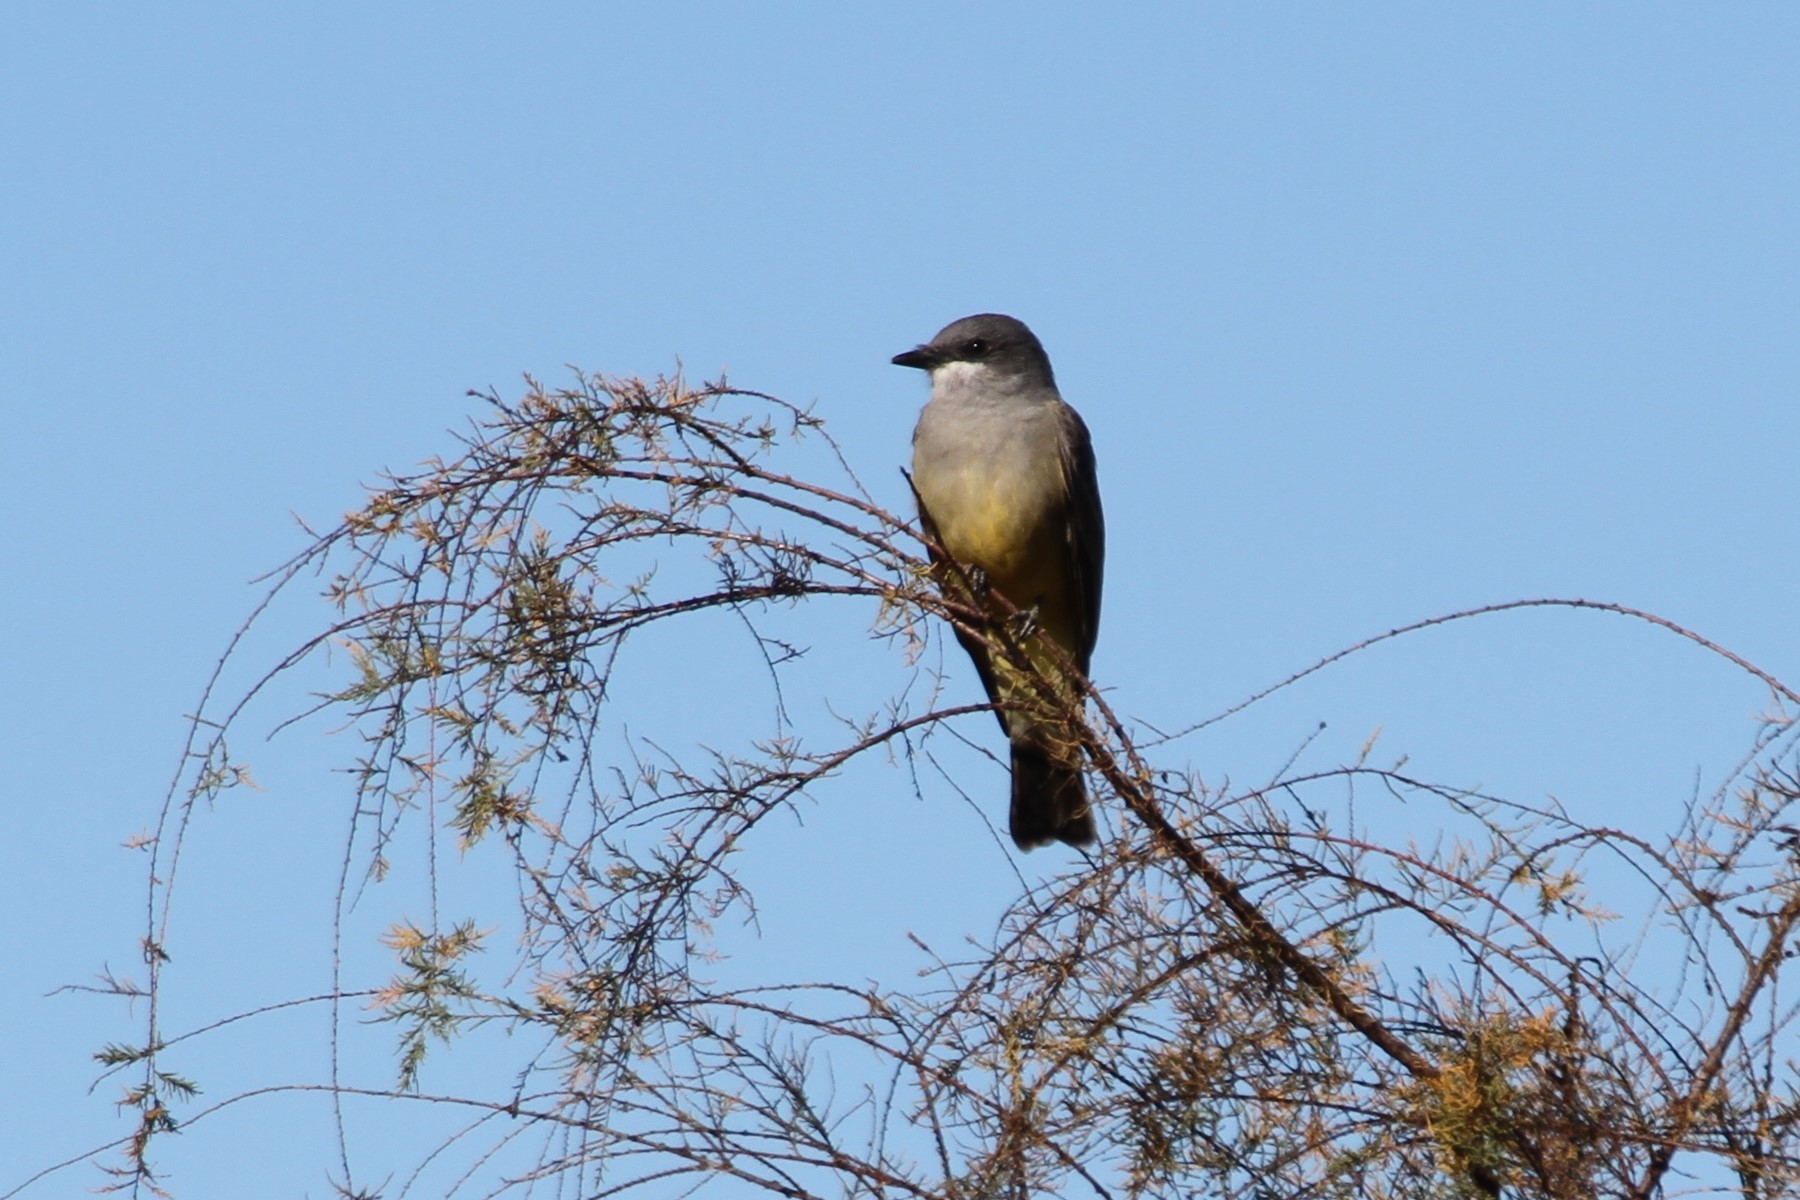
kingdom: Animalia
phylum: Chordata
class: Aves
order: Passeriformes
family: Tyrannidae
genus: Tyrannus
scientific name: Tyrannus vociferans
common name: Cassin's kingbird
